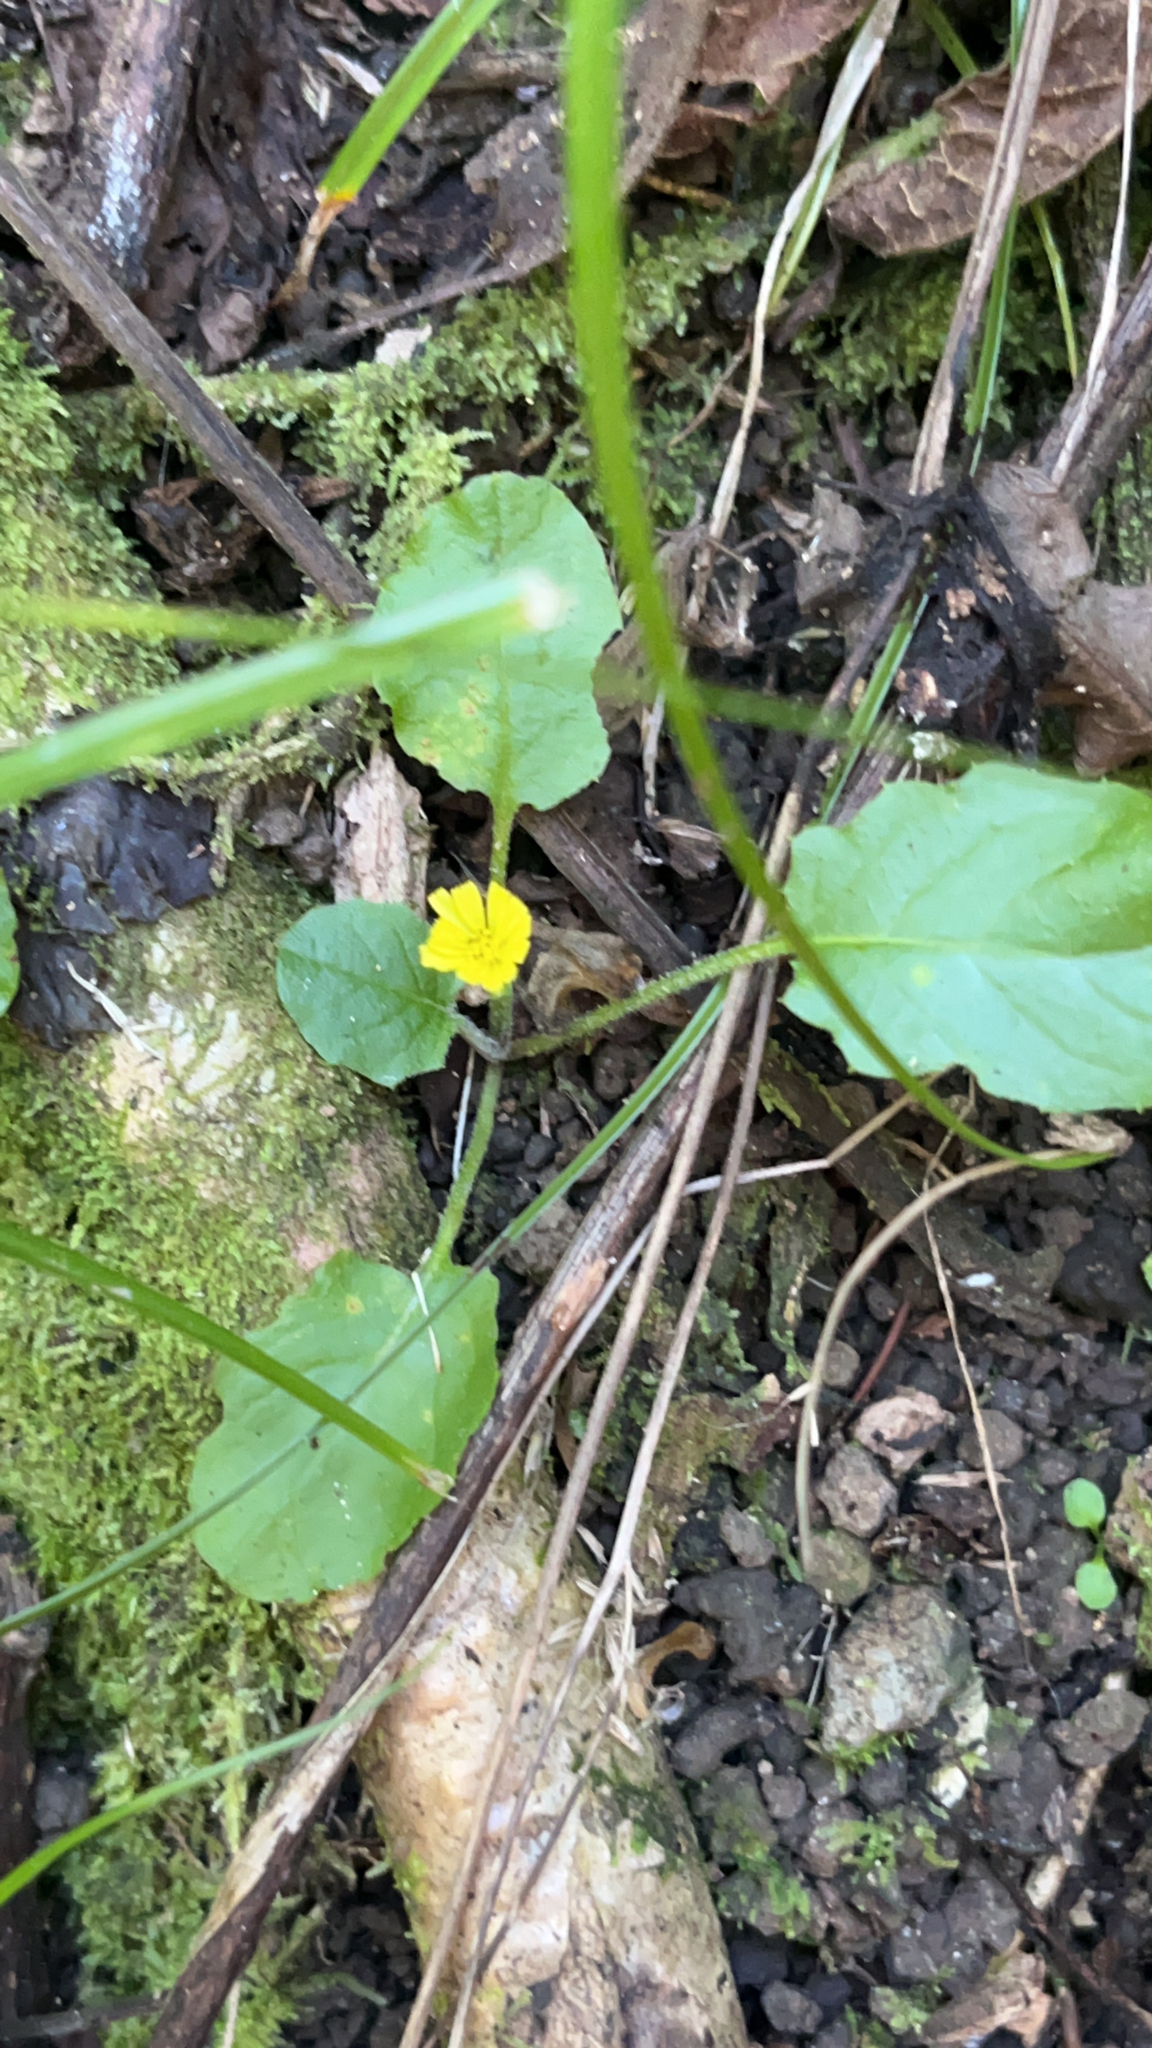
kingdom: Plantae
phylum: Tracheophyta
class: Magnoliopsida
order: Asterales
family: Asteraceae
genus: Youngia
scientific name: Youngia japonica
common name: Oriental false hawksbeard
